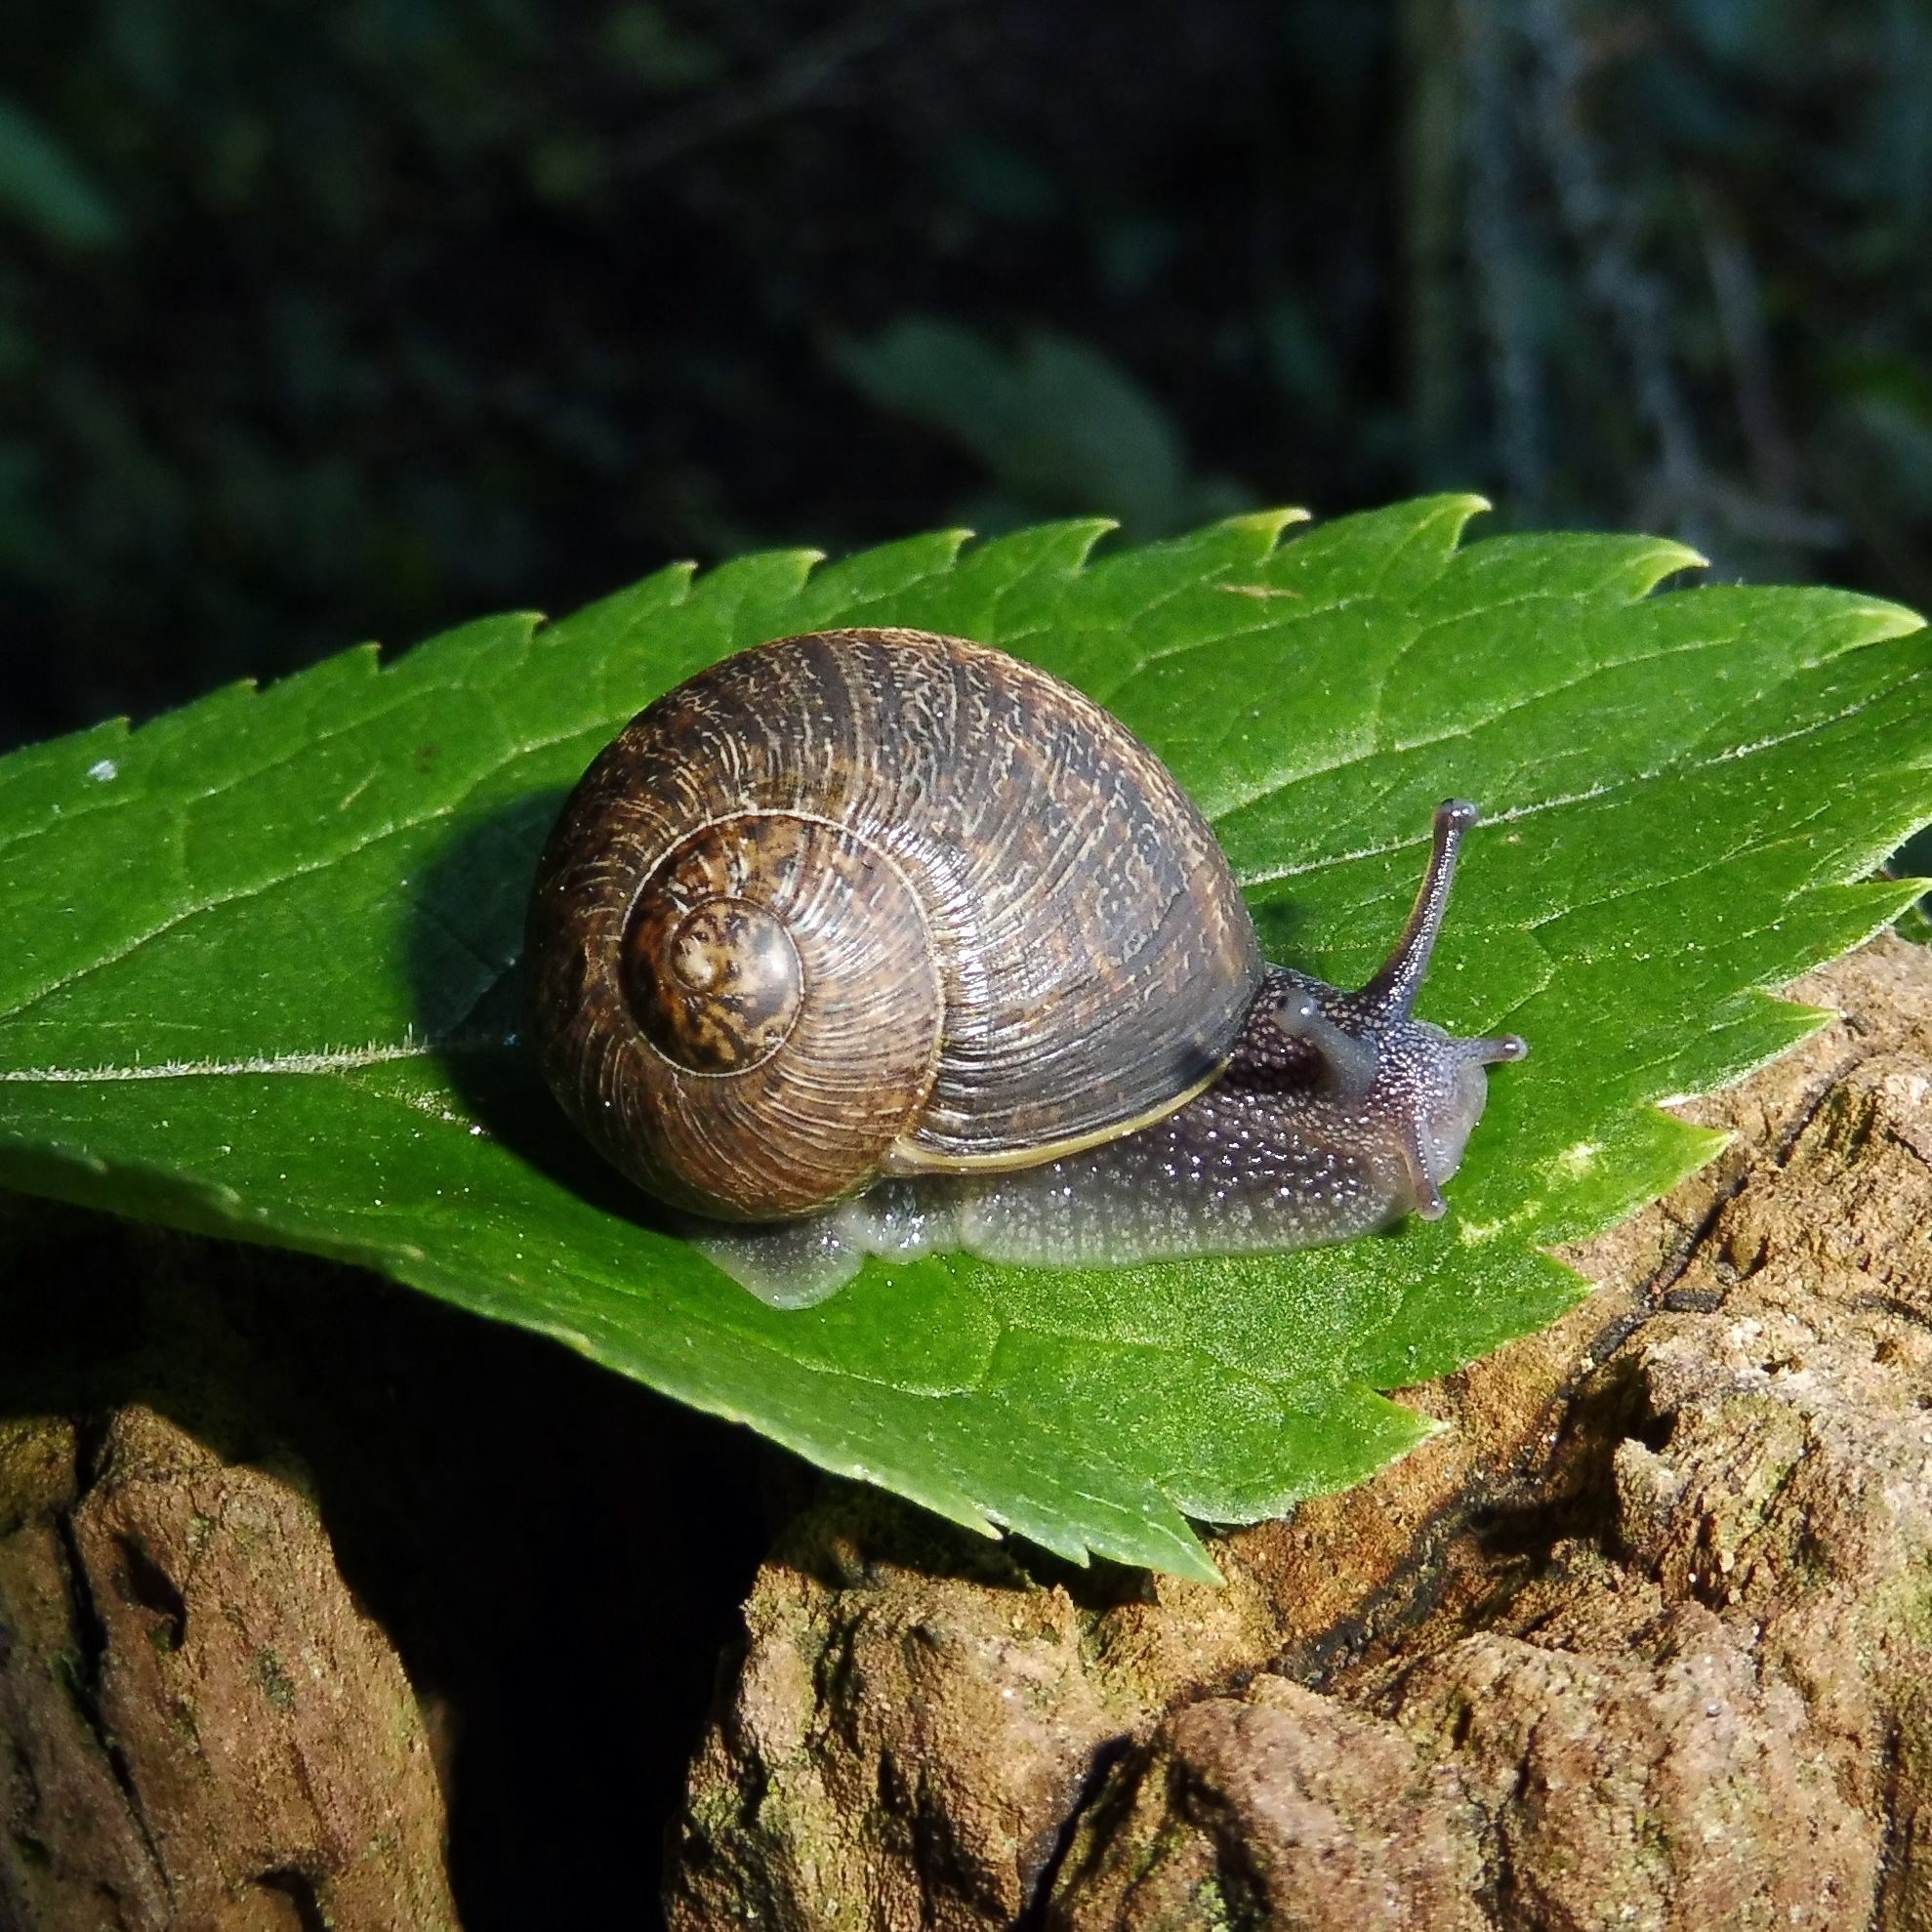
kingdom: Animalia
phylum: Mollusca
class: Gastropoda
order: Stylommatophora
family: Helicidae
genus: Cornu
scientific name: Cornu aspersum
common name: Brown garden snail
